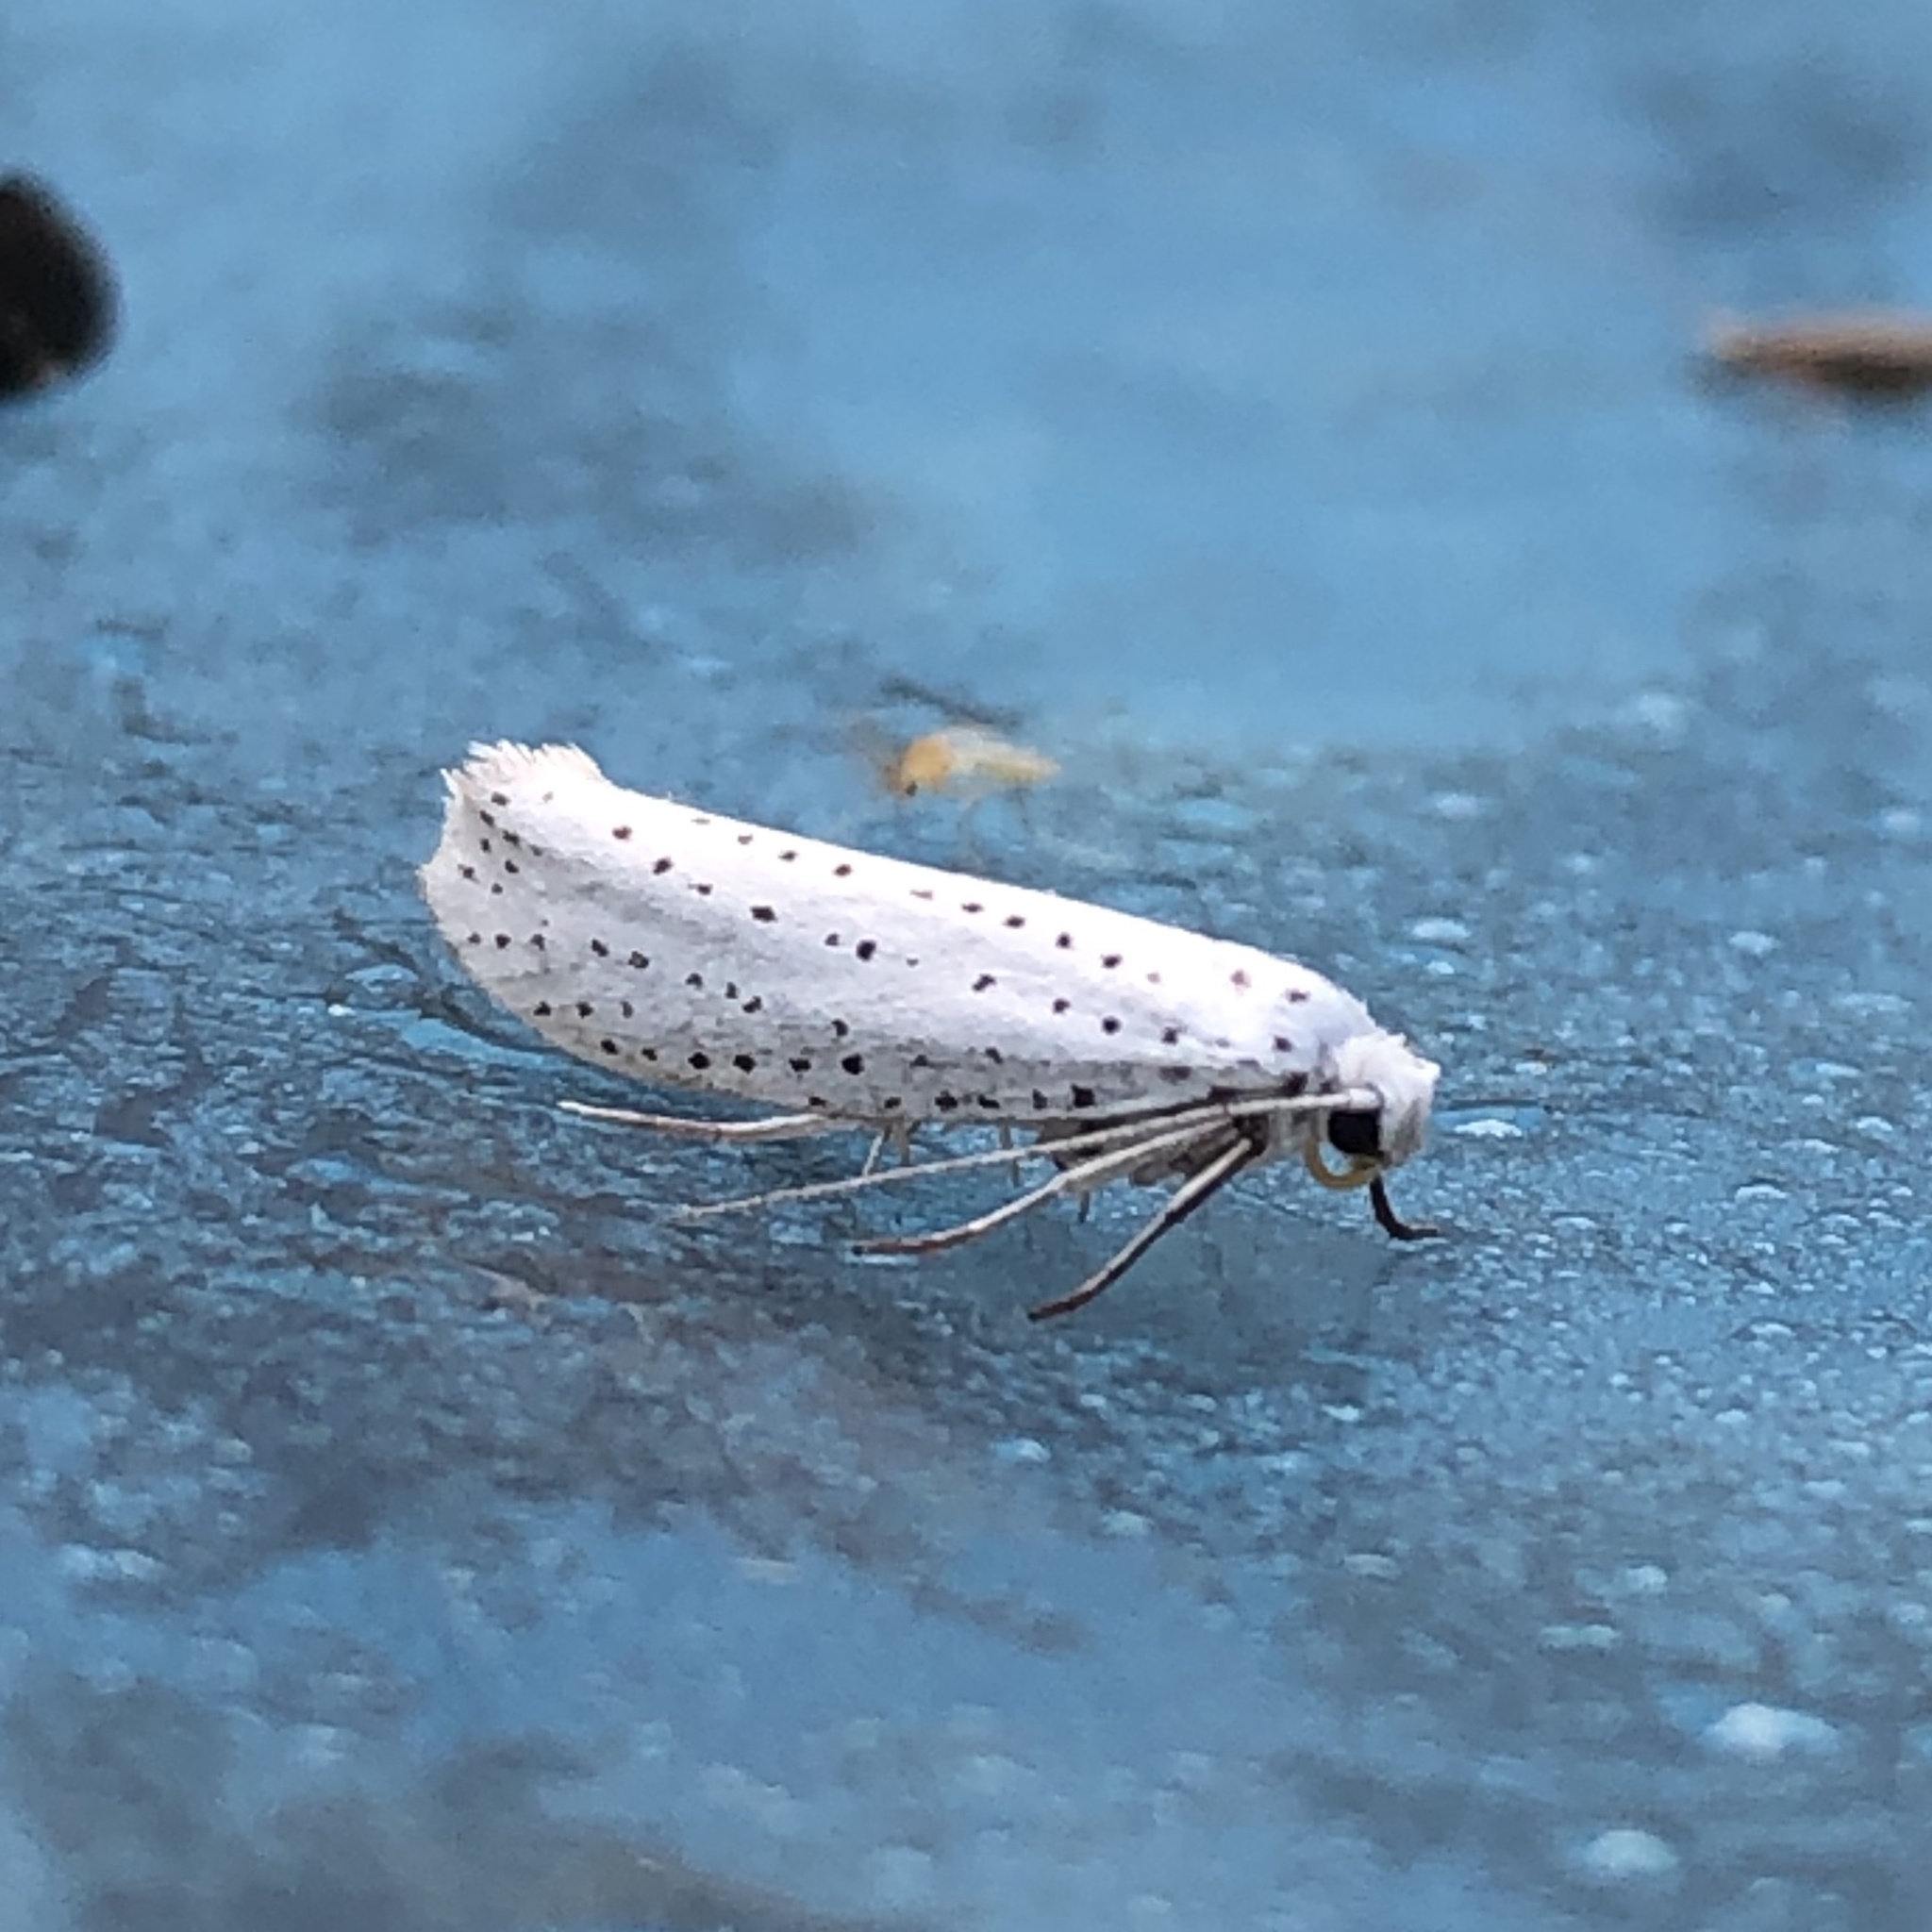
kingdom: Animalia
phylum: Arthropoda
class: Insecta
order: Lepidoptera
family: Yponomeutidae
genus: Yponomeuta
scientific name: Yponomeuta evonymella
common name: Bird-cherry ermine
